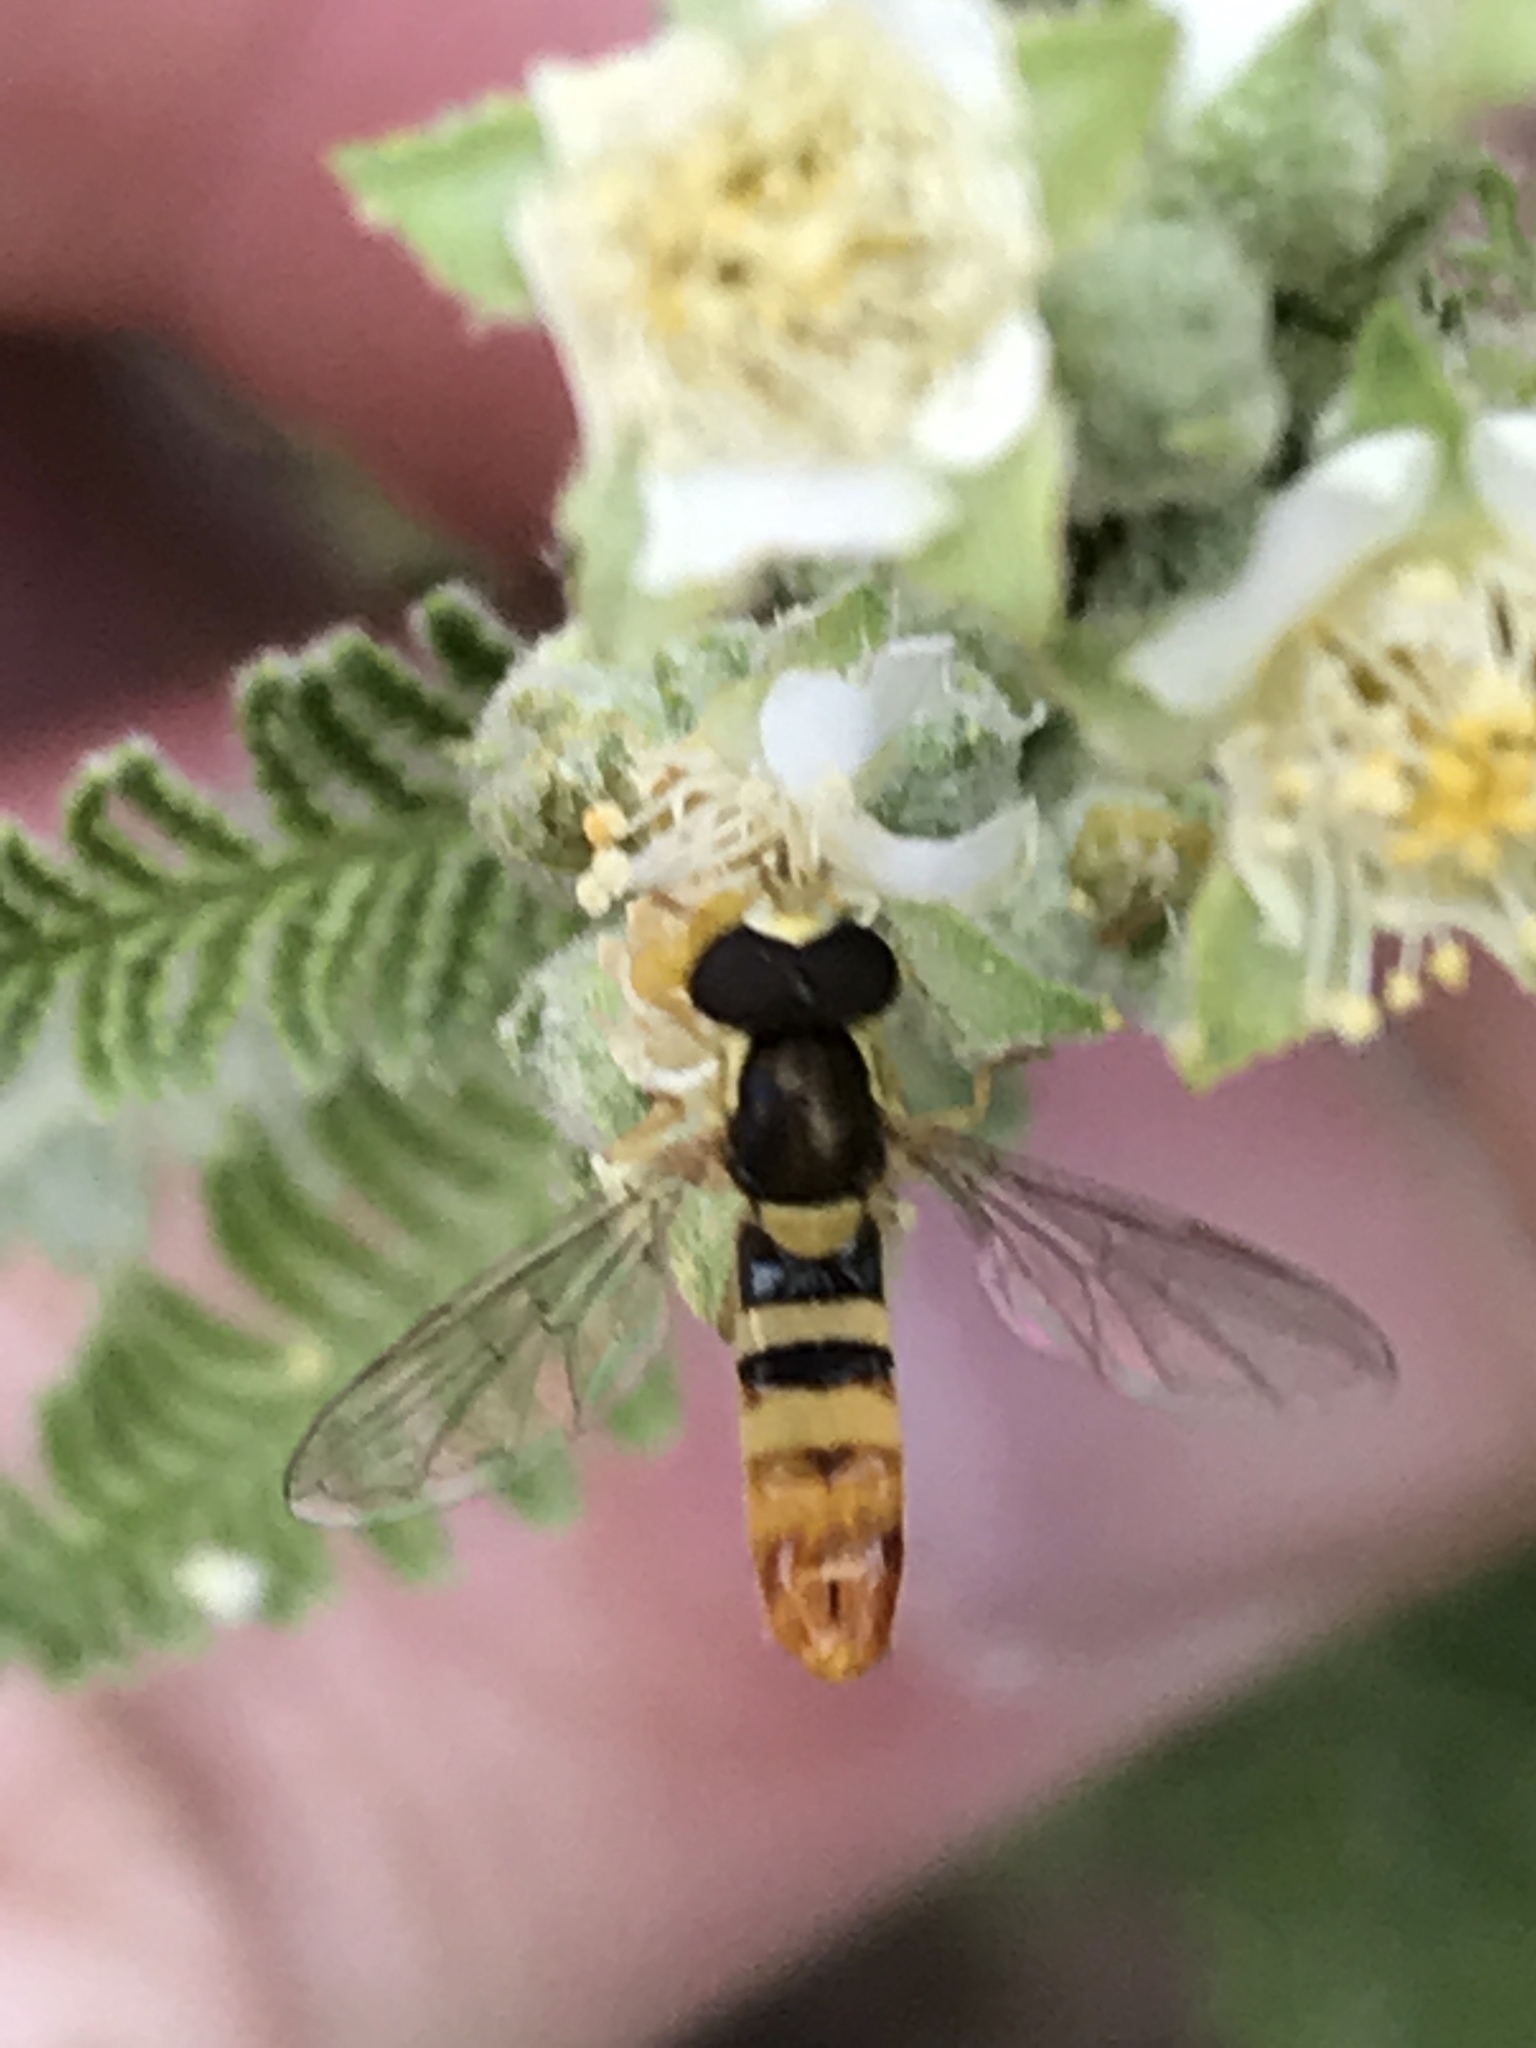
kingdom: Animalia
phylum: Arthropoda
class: Insecta
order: Diptera
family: Syrphidae
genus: Sphaerophoria
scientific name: Sphaerophoria sulphuripes
